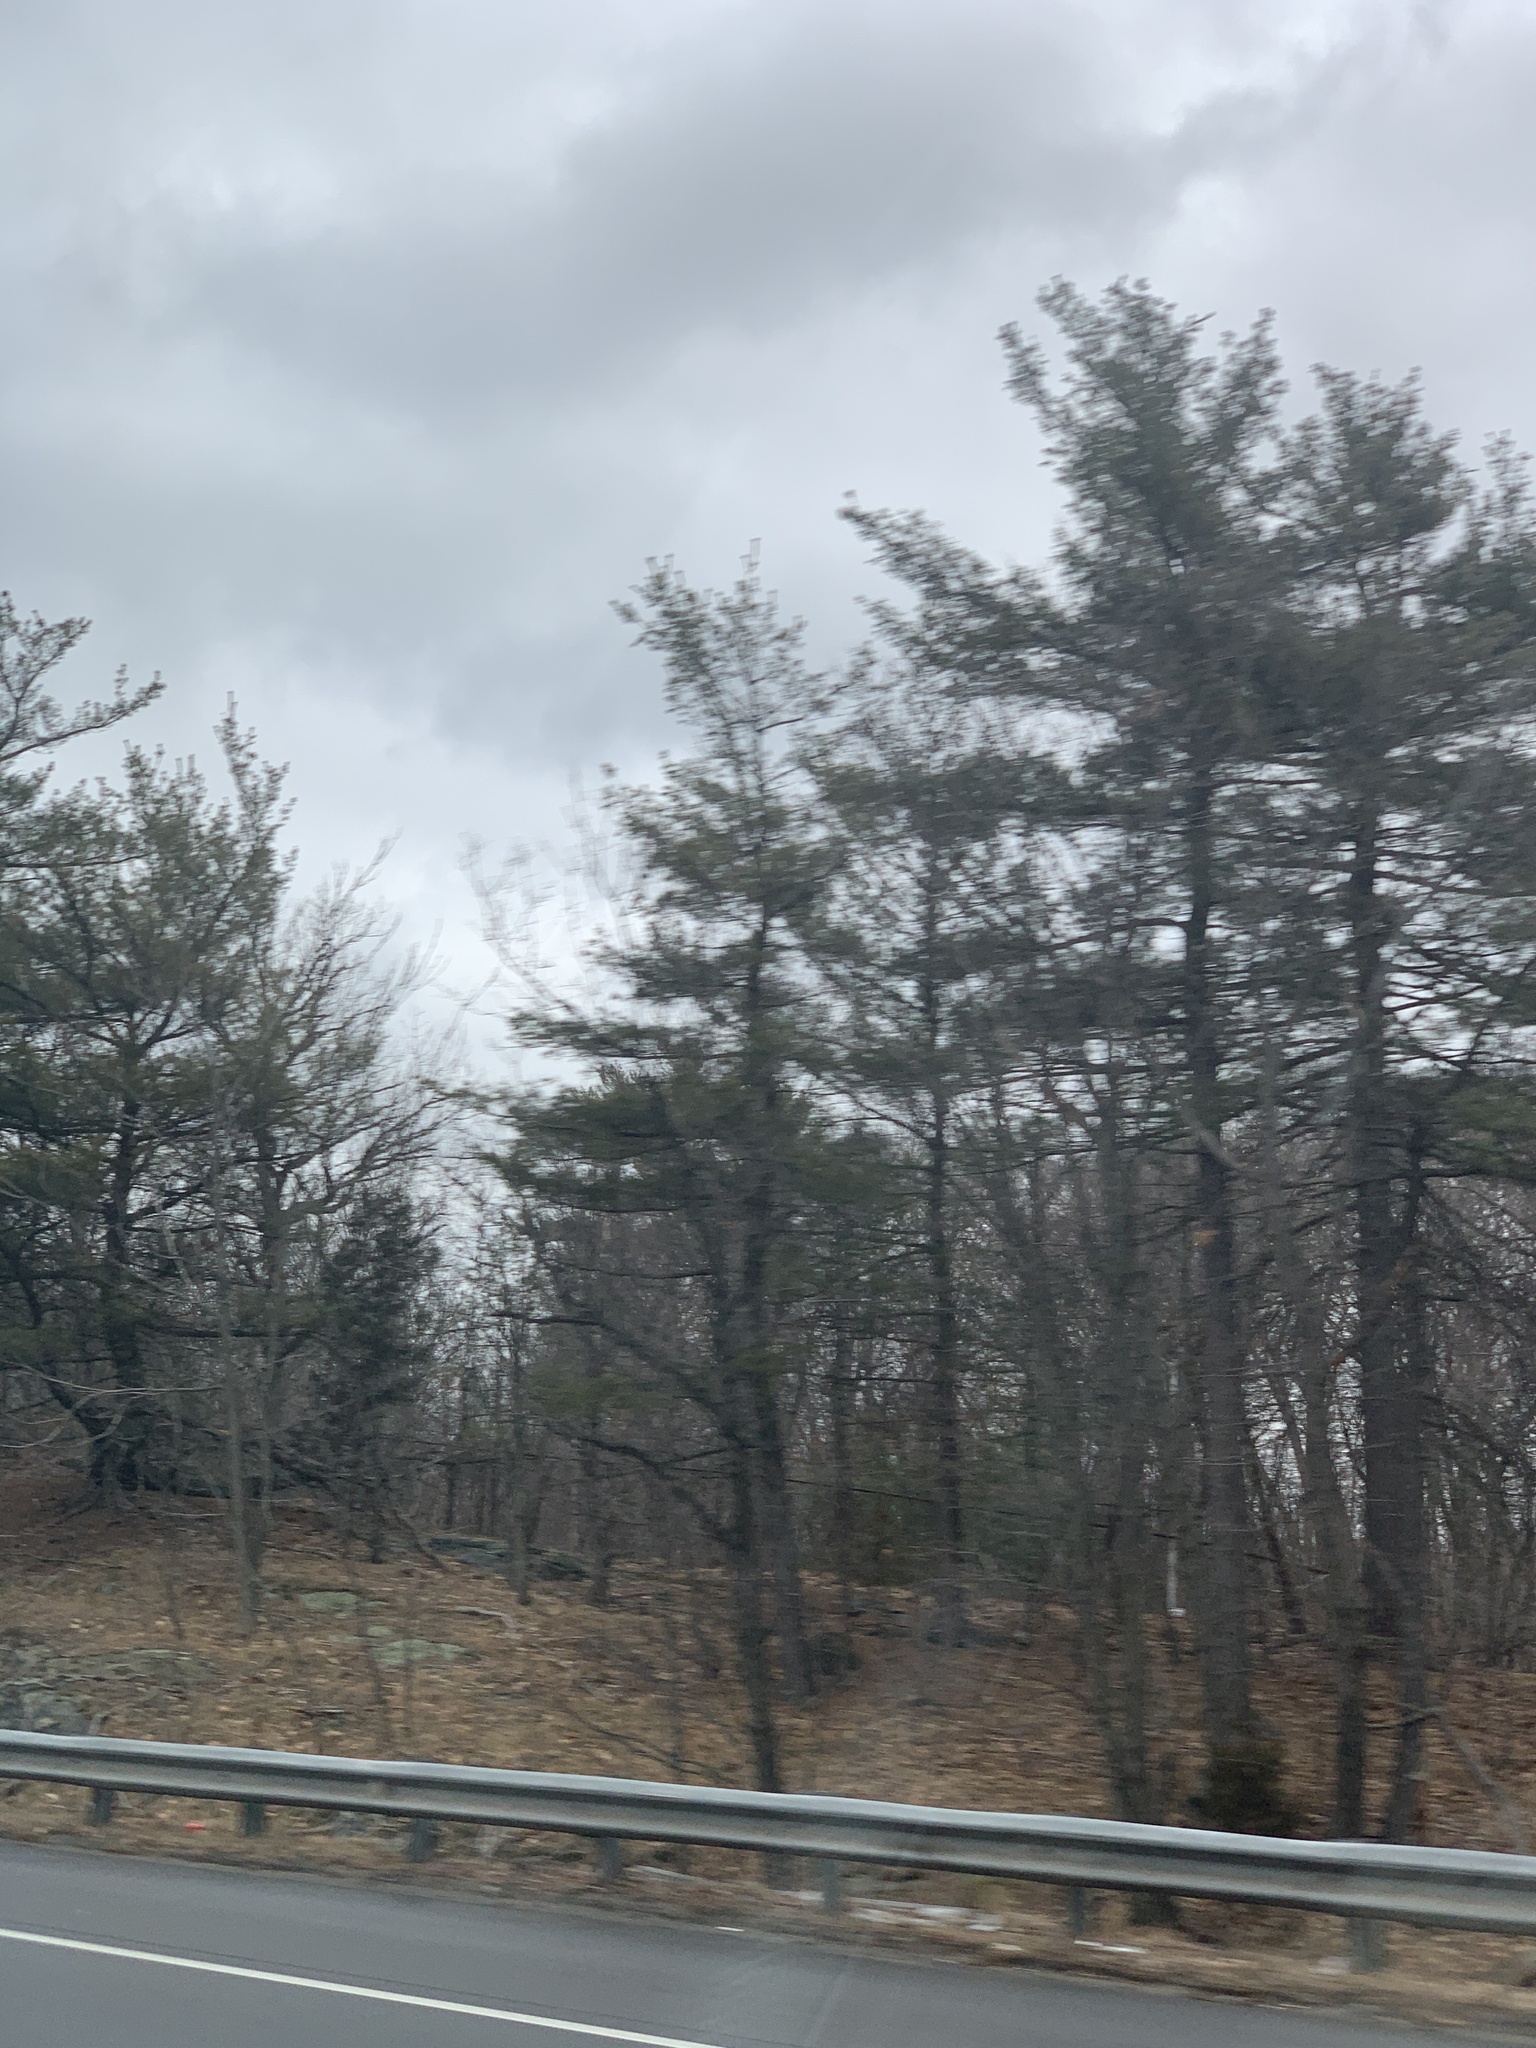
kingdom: Plantae
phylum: Tracheophyta
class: Pinopsida
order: Pinales
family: Pinaceae
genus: Pinus
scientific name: Pinus strobus
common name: Weymouth pine
